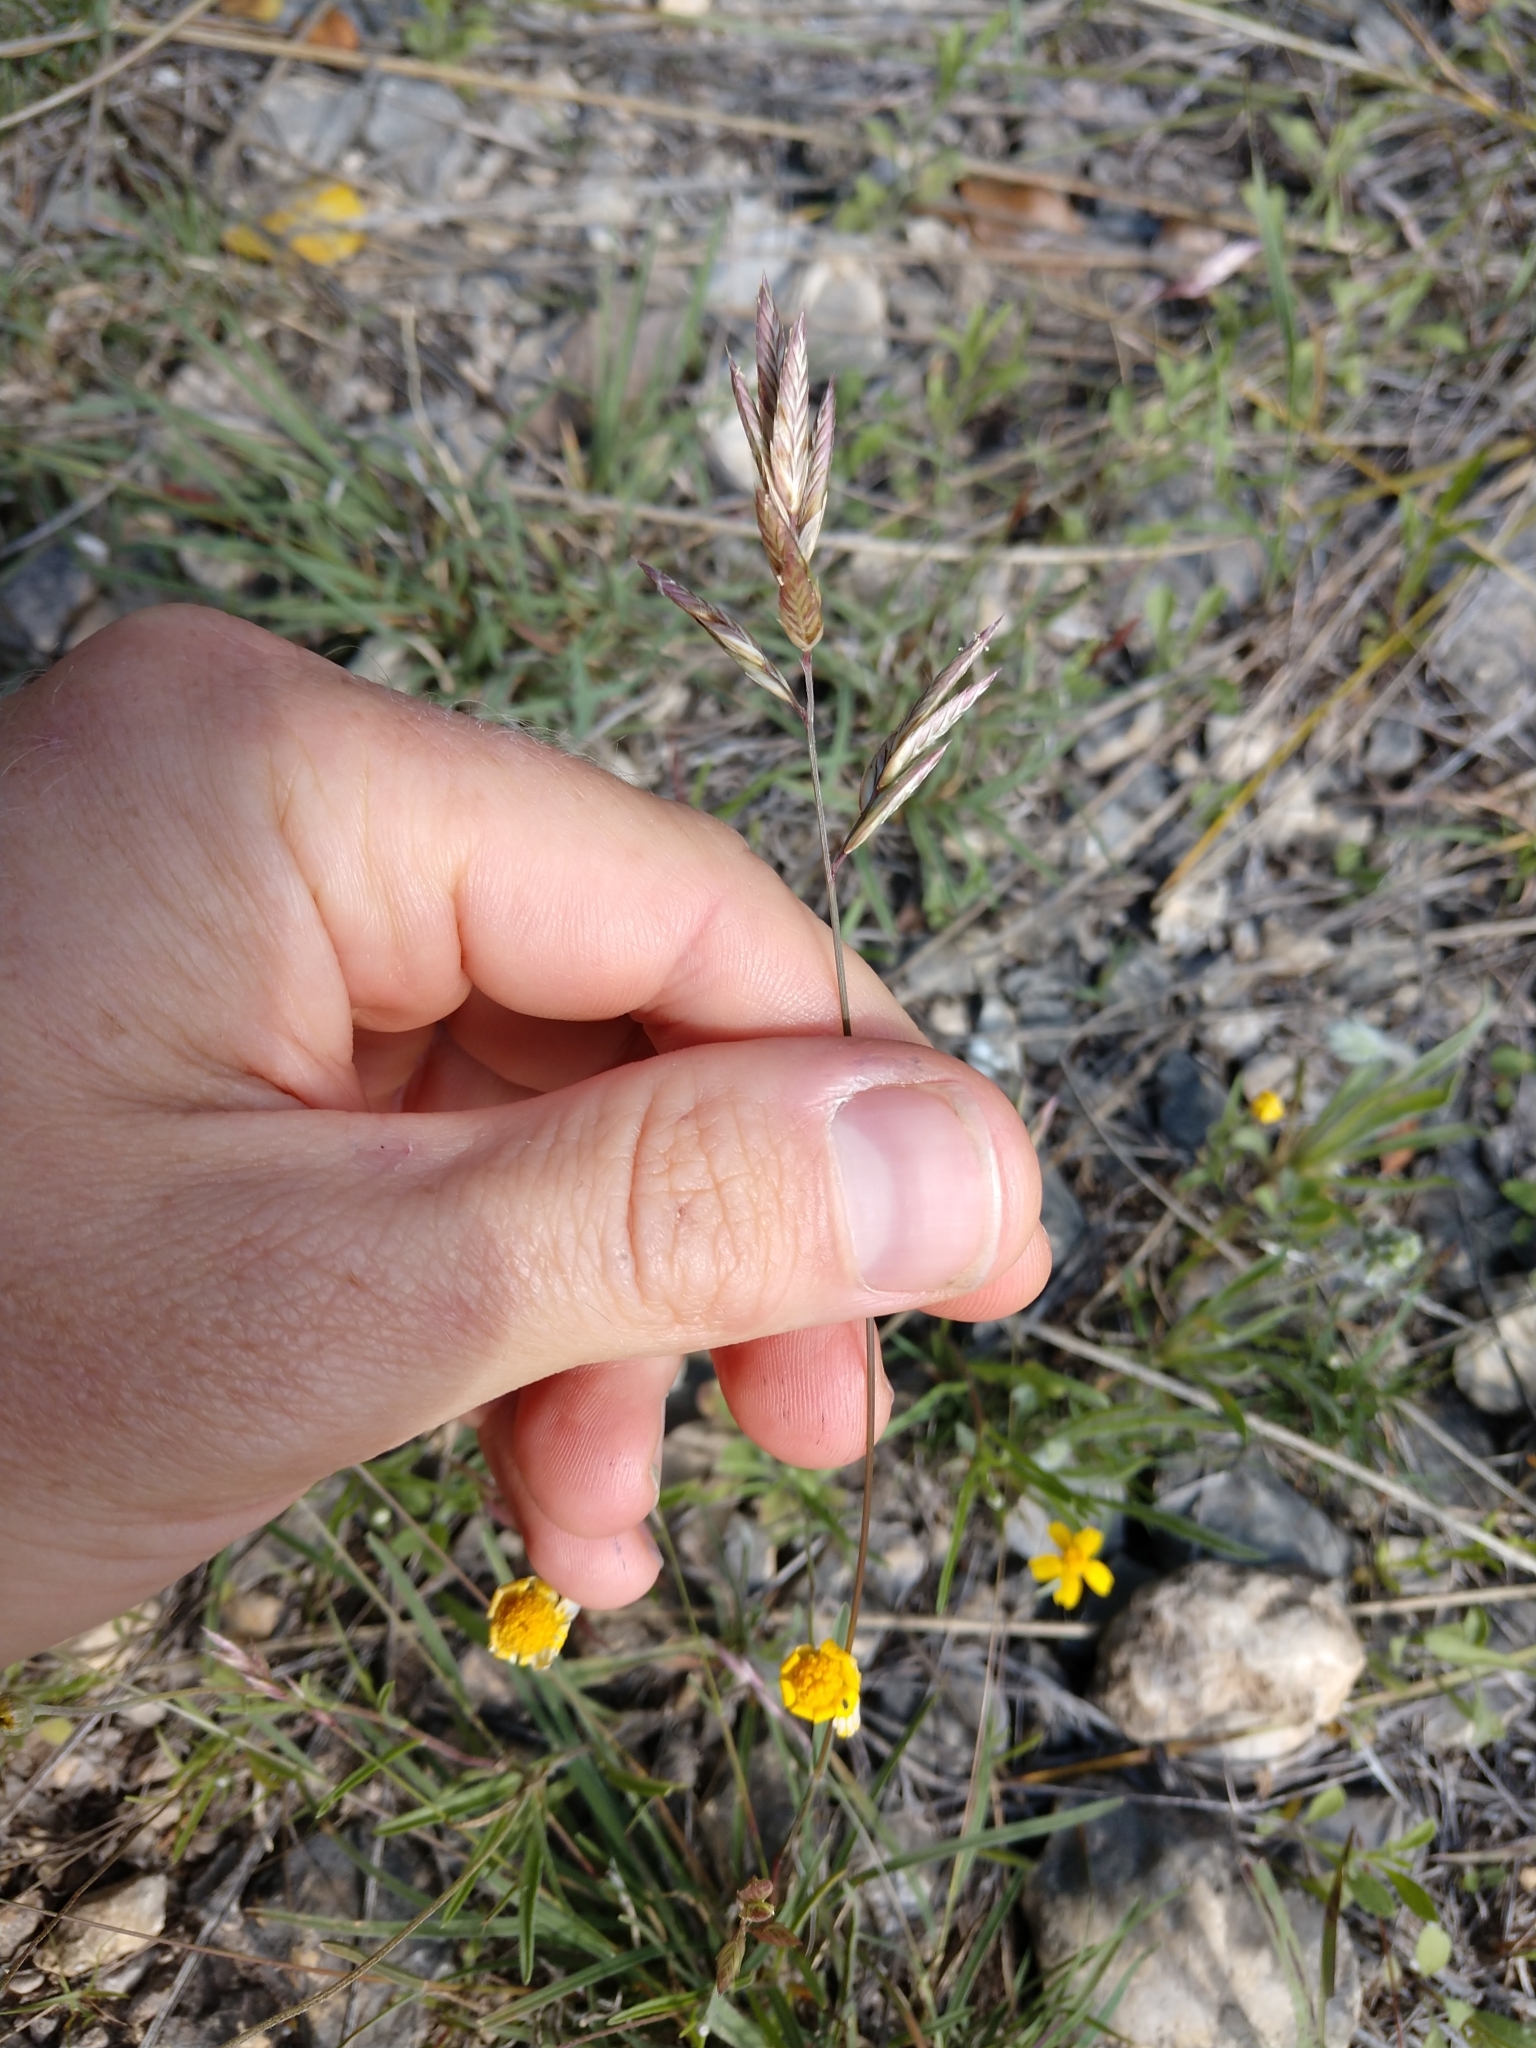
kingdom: Plantae
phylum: Tracheophyta
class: Liliopsida
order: Poales
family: Poaceae
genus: Erioneuron
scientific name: Erioneuron pilosum
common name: Hairy woolly grass
